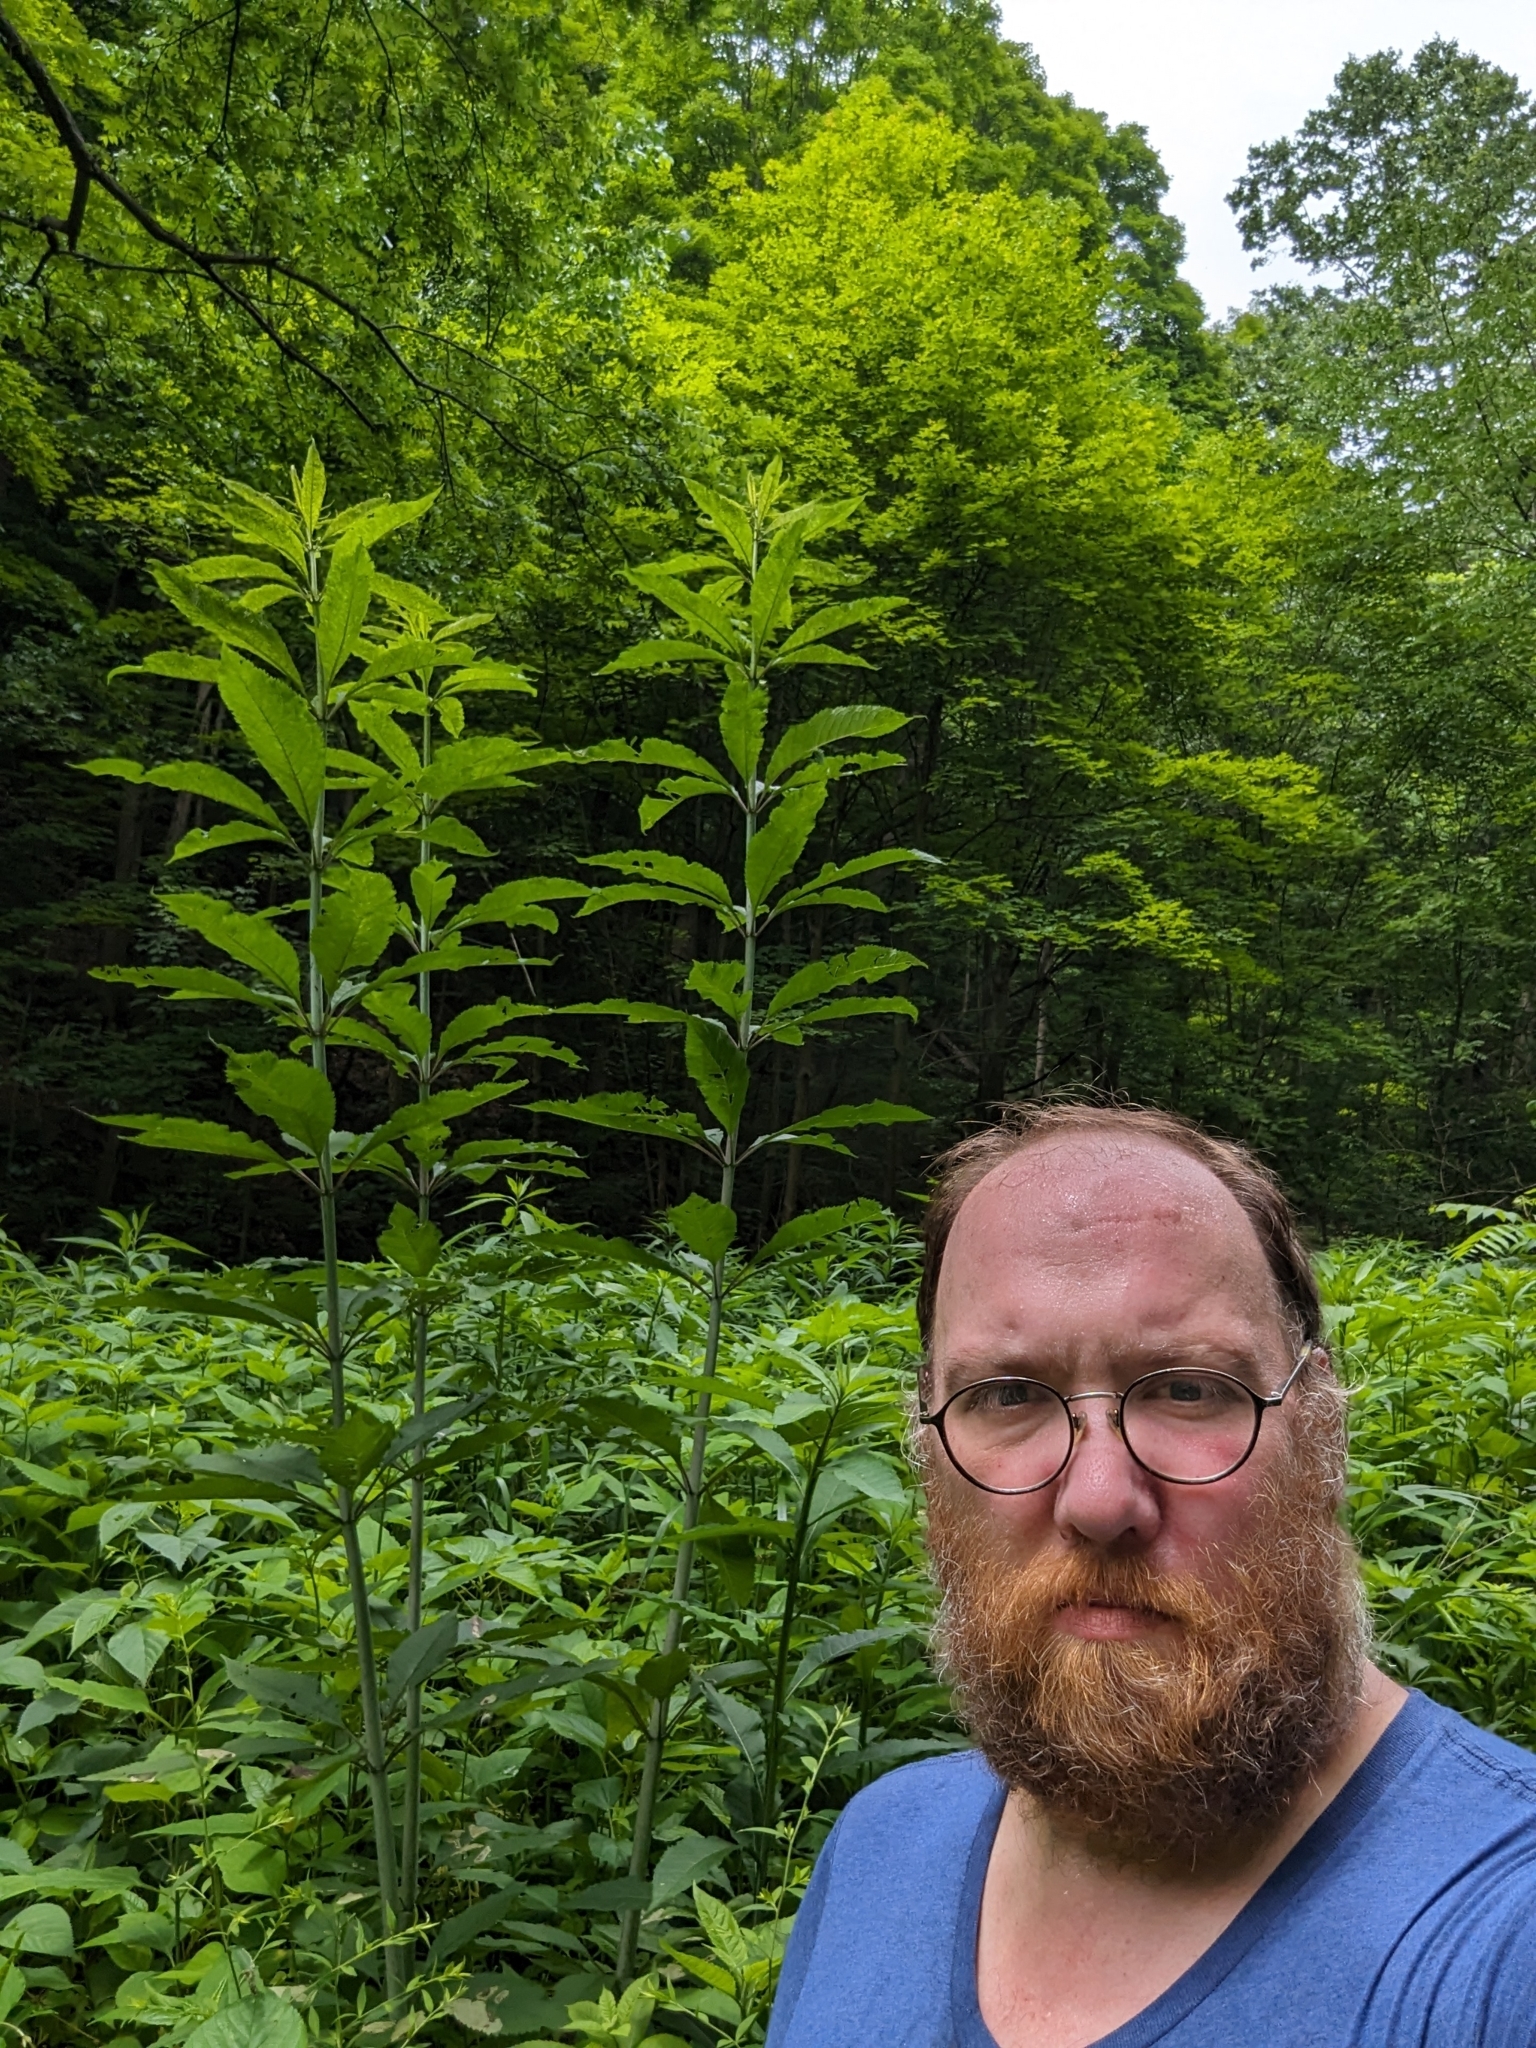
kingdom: Plantae
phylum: Tracheophyta
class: Magnoliopsida
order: Asterales
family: Asteraceae
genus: Eutrochium
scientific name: Eutrochium fistulosum
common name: Trumpetweed
